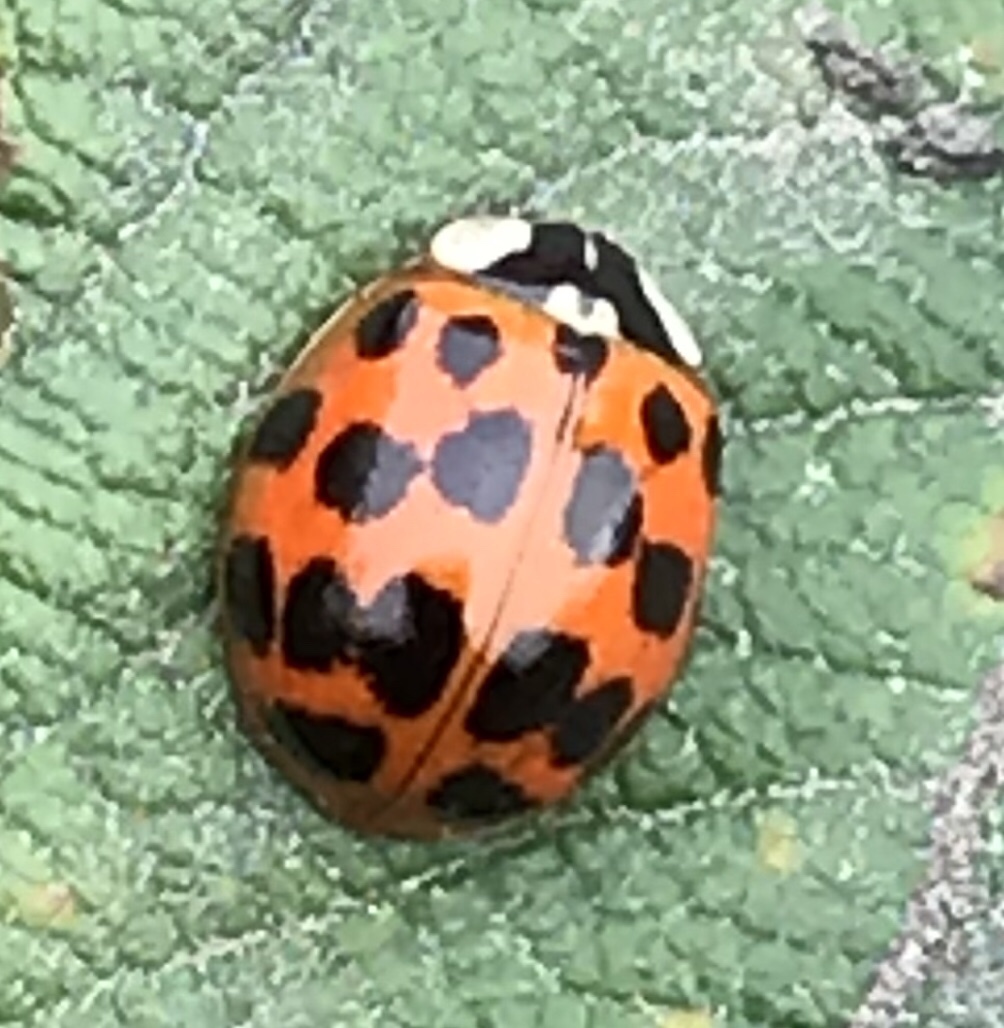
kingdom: Animalia
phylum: Arthropoda
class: Insecta
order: Coleoptera
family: Coccinellidae
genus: Harmonia
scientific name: Harmonia axyridis
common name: Harlequin ladybird
